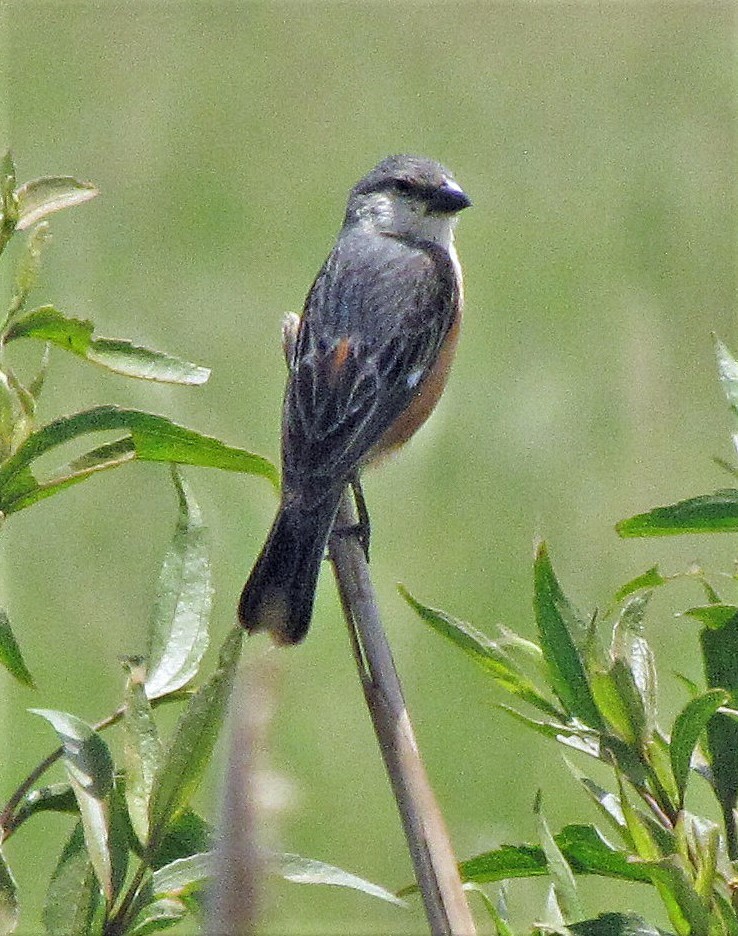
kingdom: Animalia
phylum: Chordata
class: Aves
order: Passeriformes
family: Thraupidae
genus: Sporophila
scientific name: Sporophila palustris
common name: Marsh seedeater
